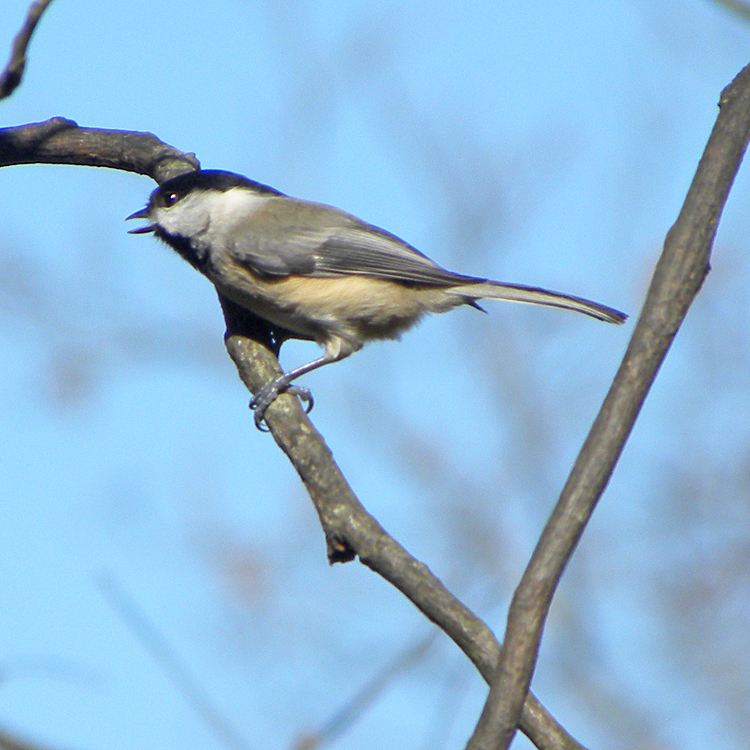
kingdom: Animalia
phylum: Chordata
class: Aves
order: Passeriformes
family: Paridae
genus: Poecile
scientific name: Poecile carolinensis
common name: Carolina chickadee
